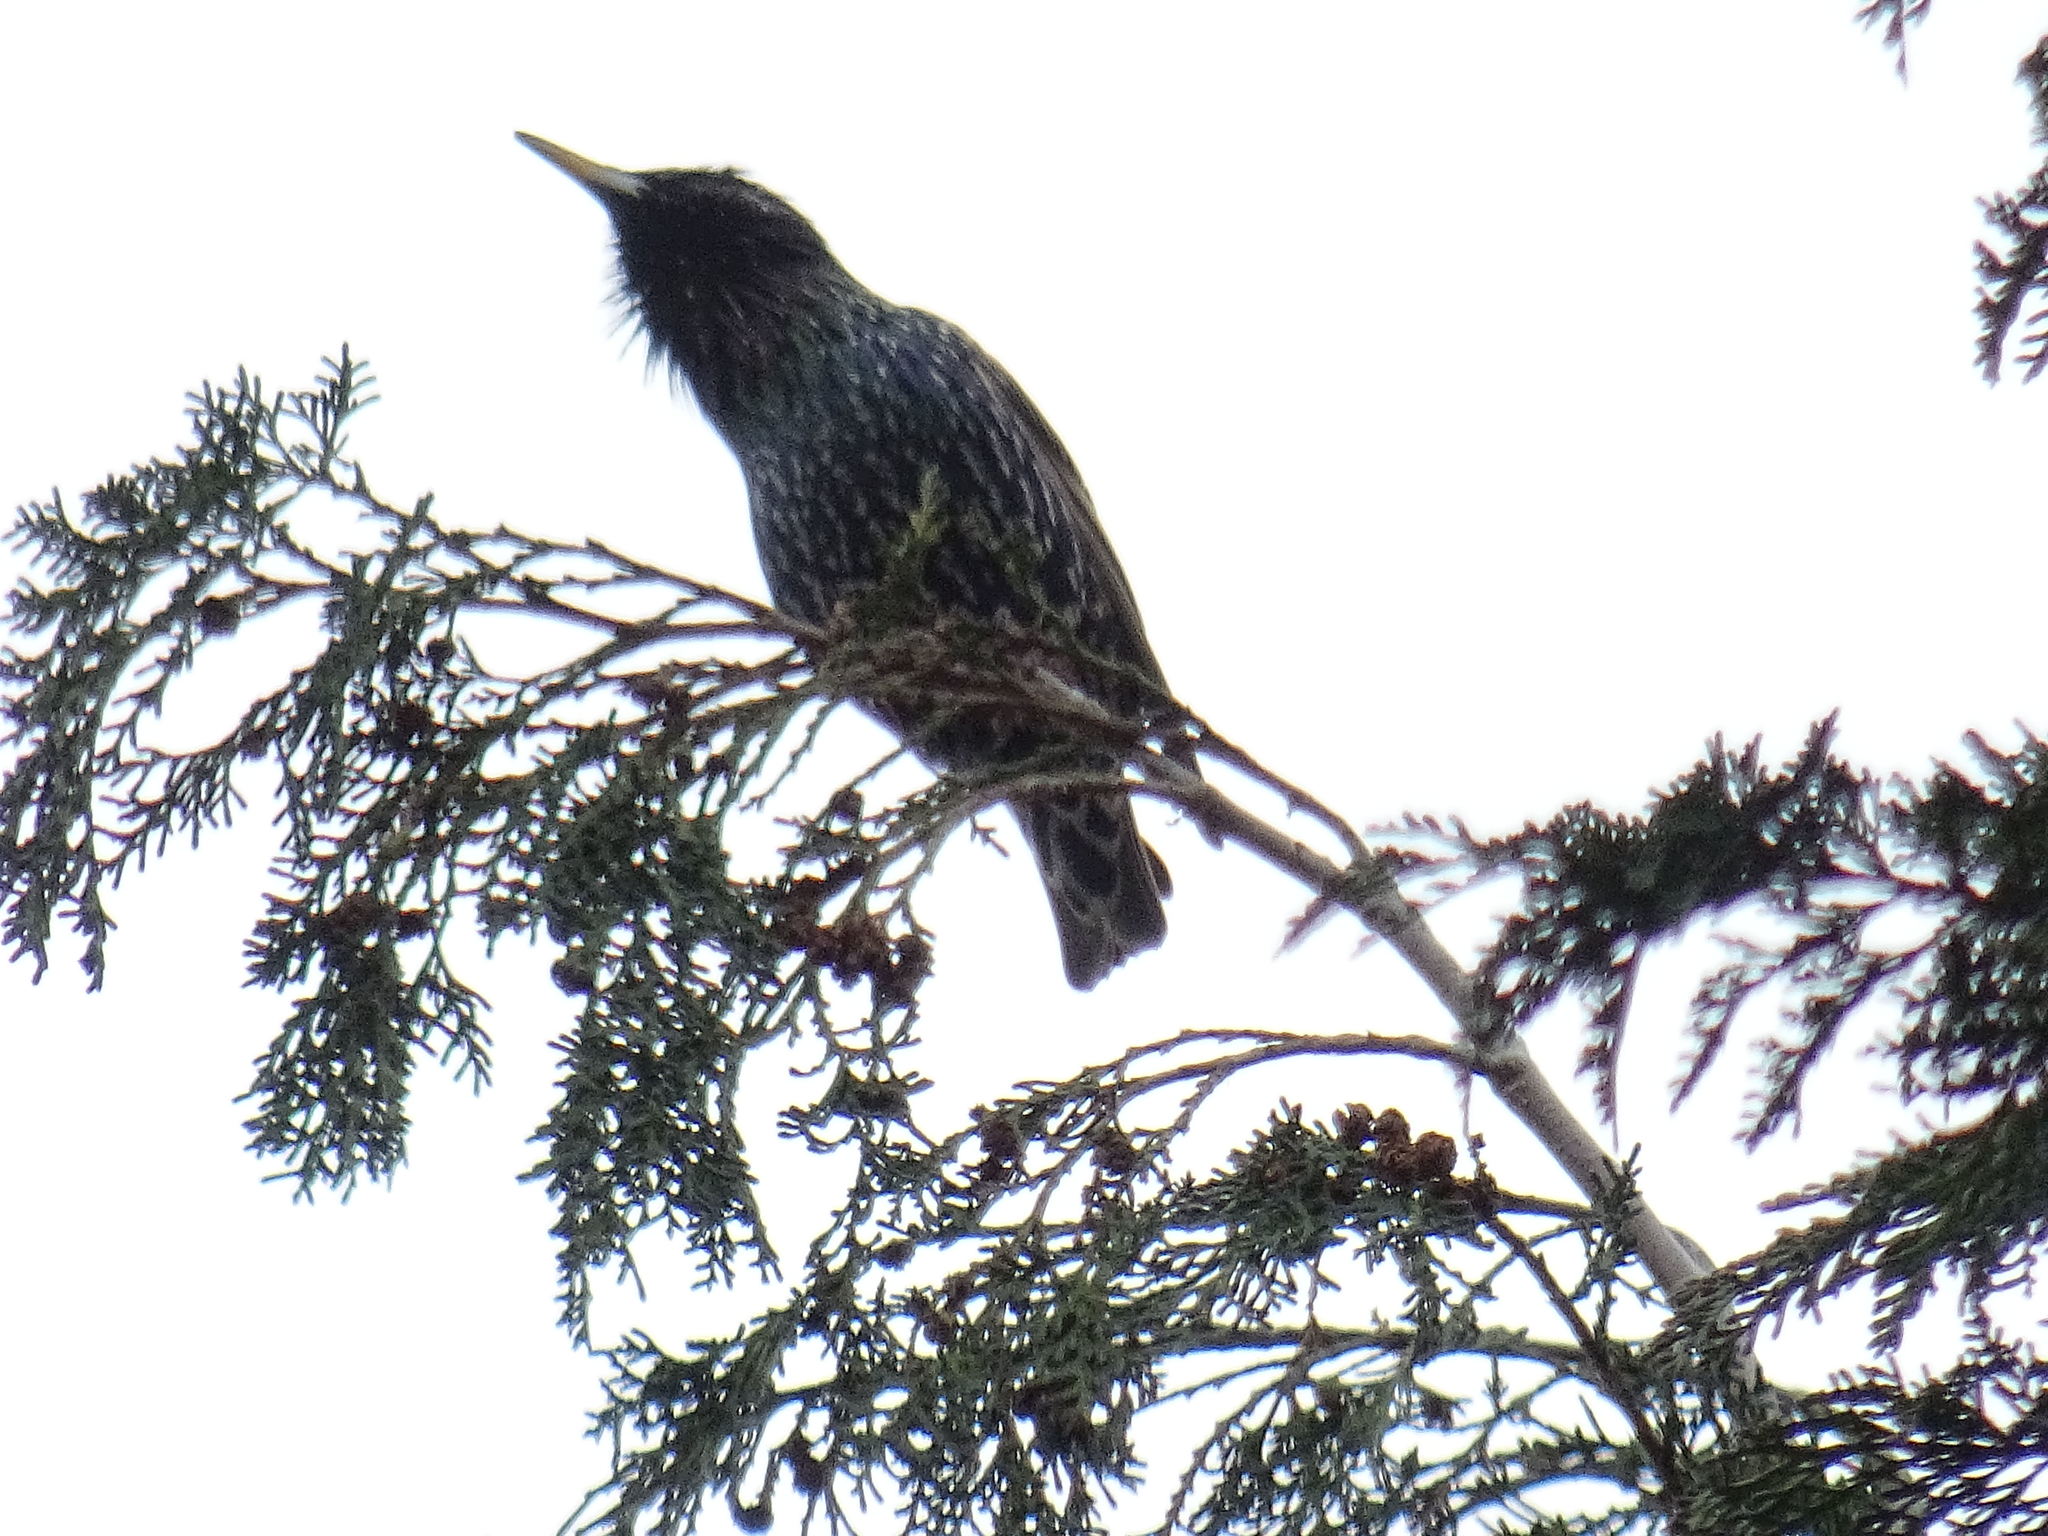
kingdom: Animalia
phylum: Chordata
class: Aves
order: Passeriformes
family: Sturnidae
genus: Sturnus
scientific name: Sturnus vulgaris
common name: Common starling
